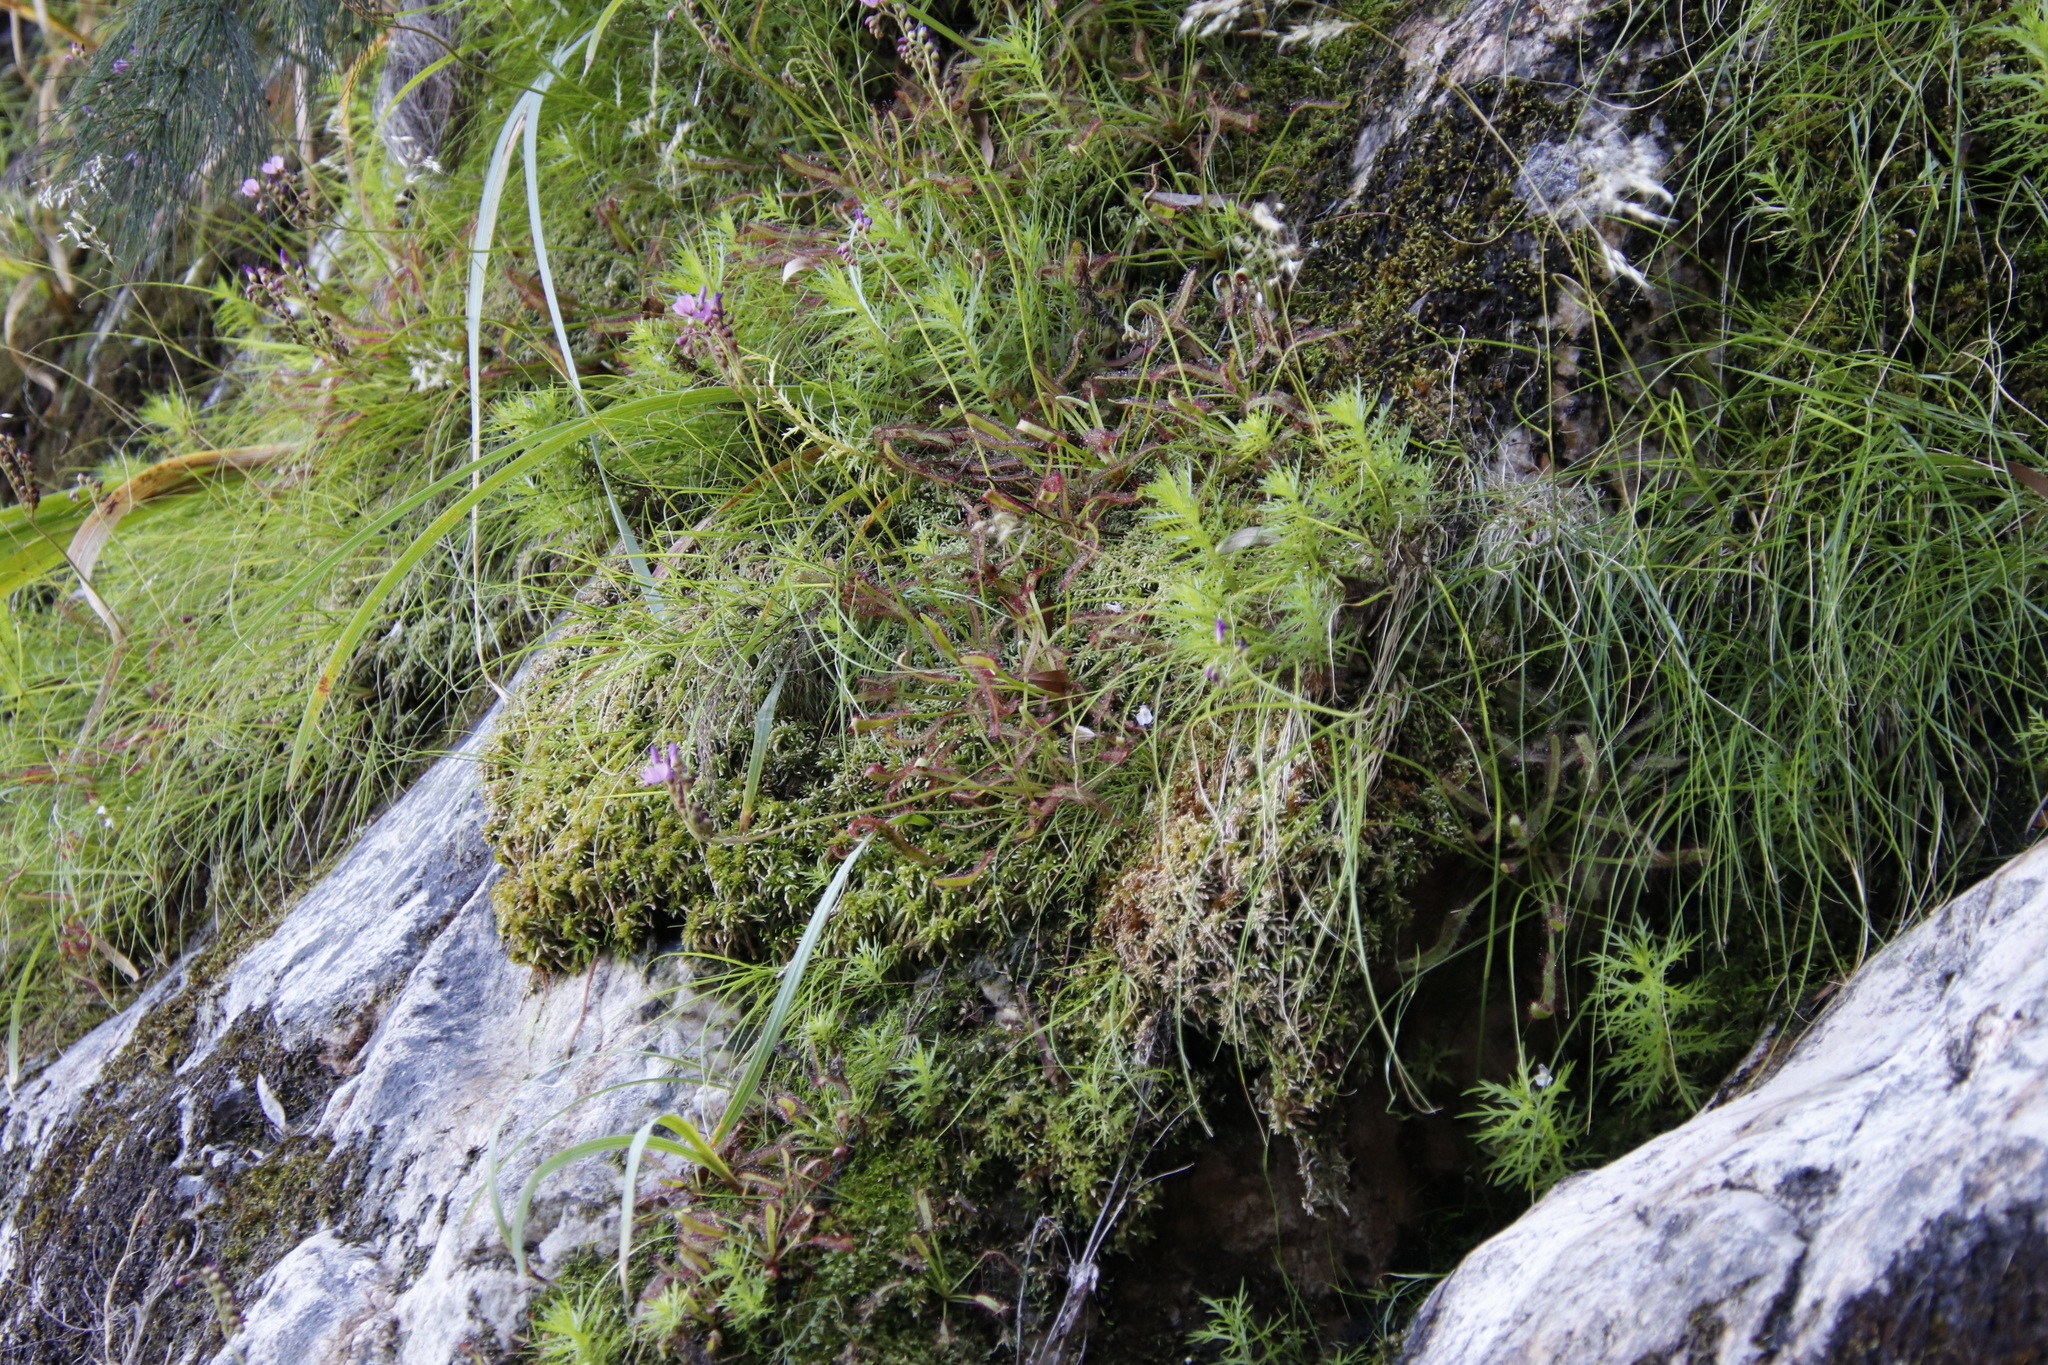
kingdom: Plantae
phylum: Tracheophyta
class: Magnoliopsida
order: Caryophyllales
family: Droseraceae
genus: Drosera
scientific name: Drosera capensis
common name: Cape sundew
